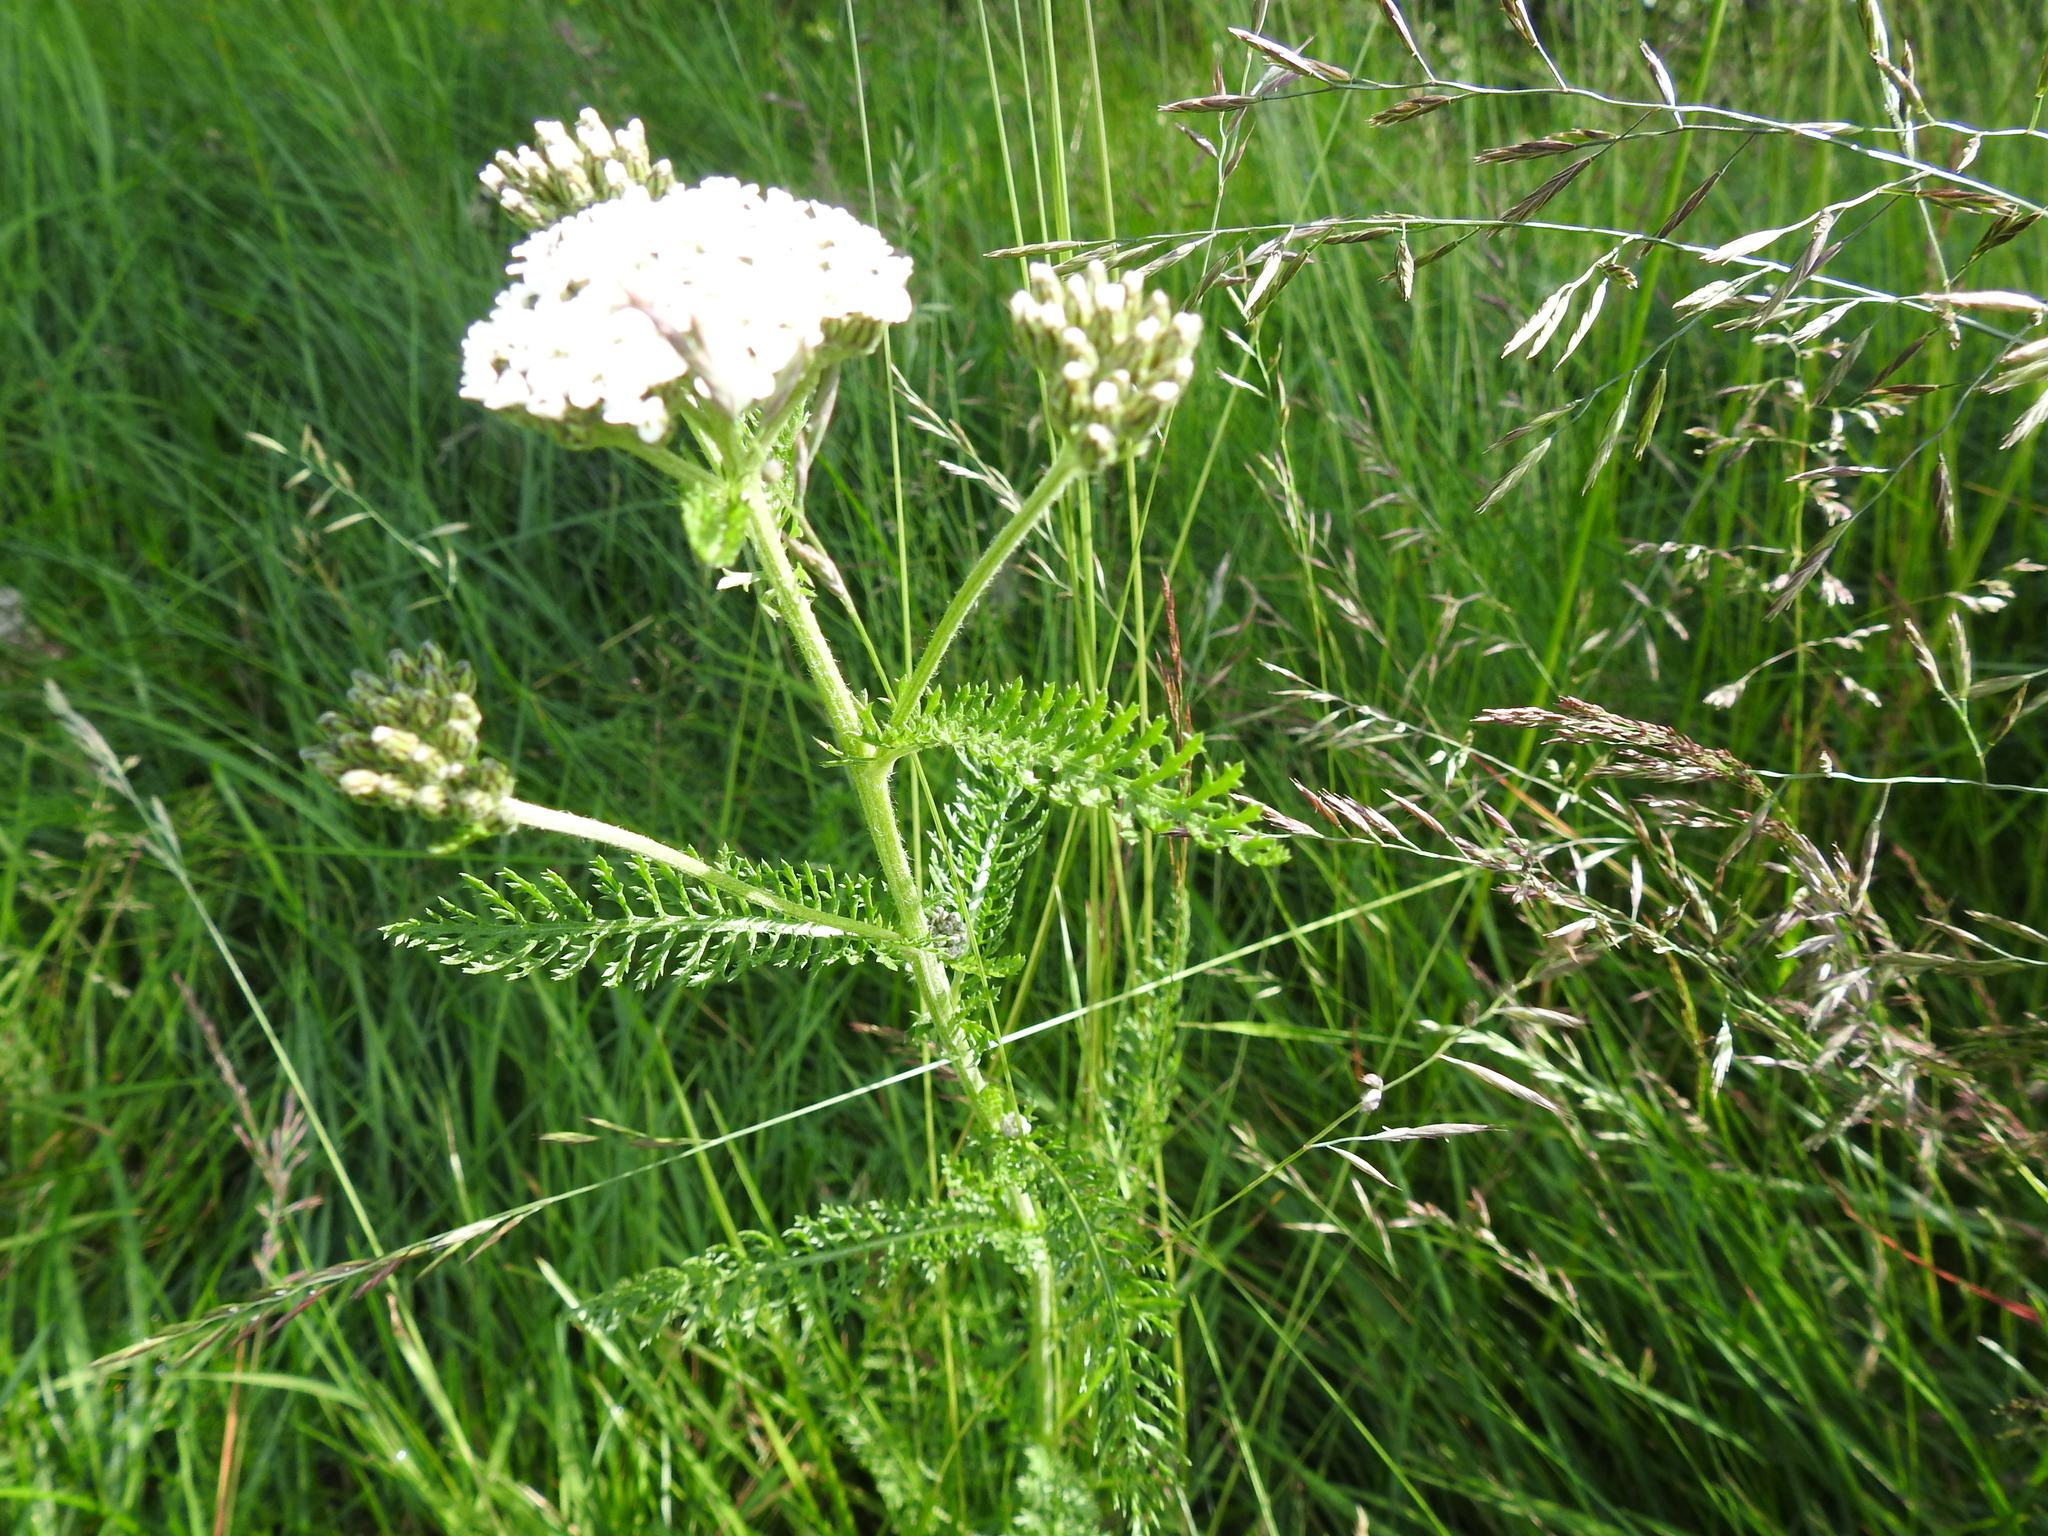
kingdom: Plantae
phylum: Tracheophyta
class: Magnoliopsida
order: Asterales
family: Asteraceae
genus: Achillea
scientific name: Achillea millefolium
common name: Yarrow
